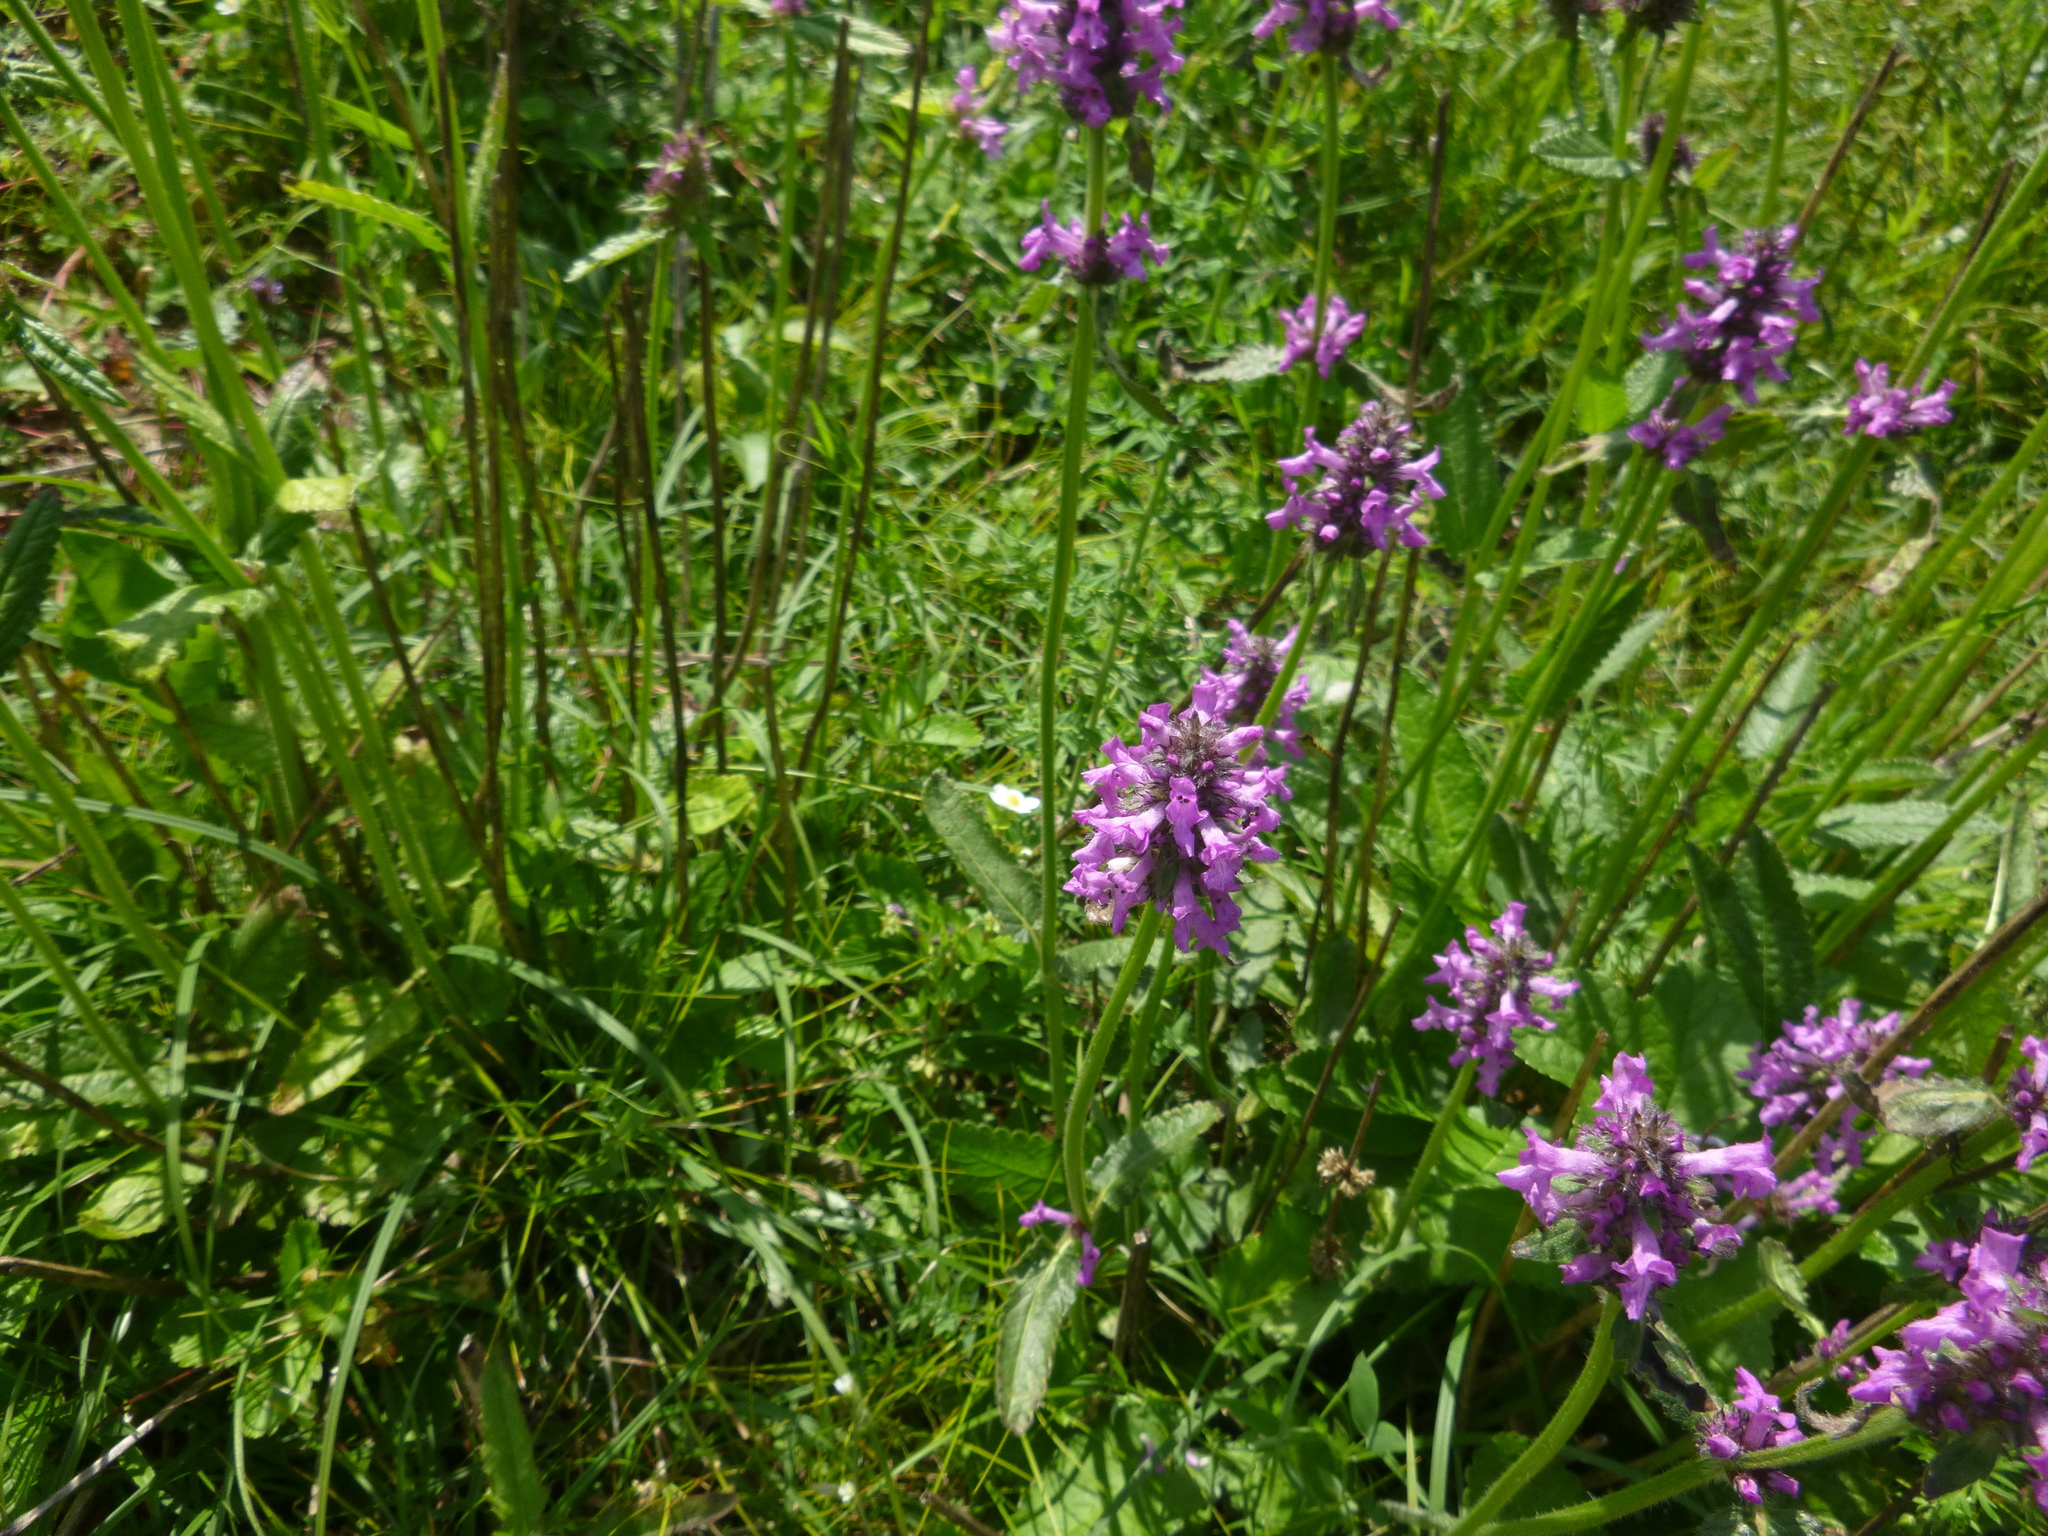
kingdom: Plantae
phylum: Tracheophyta
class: Magnoliopsida
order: Lamiales
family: Lamiaceae
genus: Betonica
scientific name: Betonica officinalis
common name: Bishop's-wort
